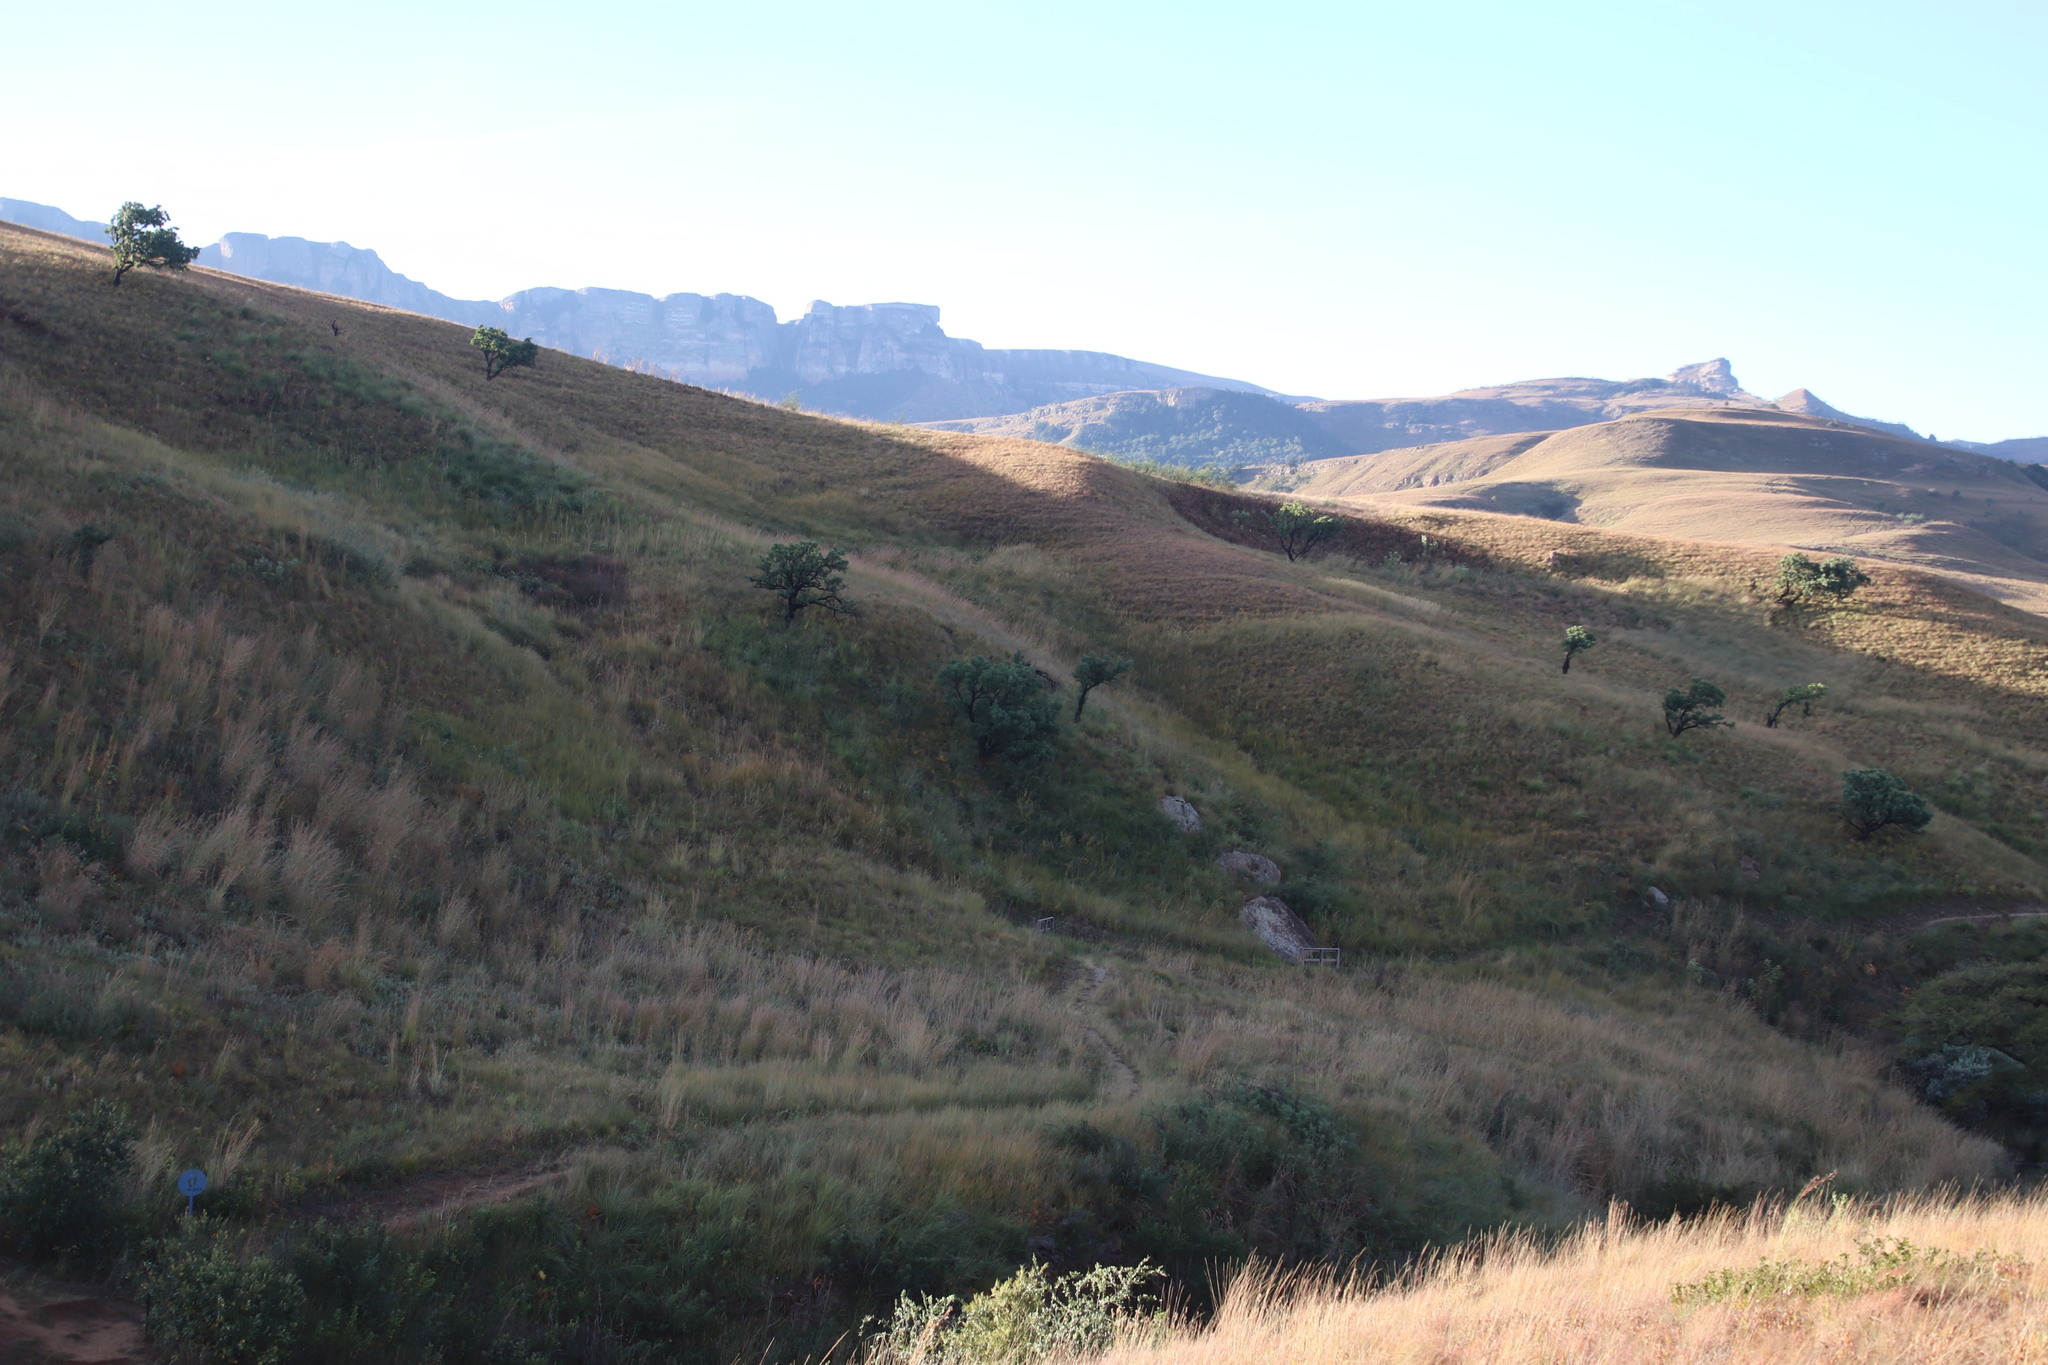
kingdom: Plantae
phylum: Tracheophyta
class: Magnoliopsida
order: Proteales
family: Proteaceae
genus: Protea
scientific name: Protea caffra
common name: Common sugarbush
